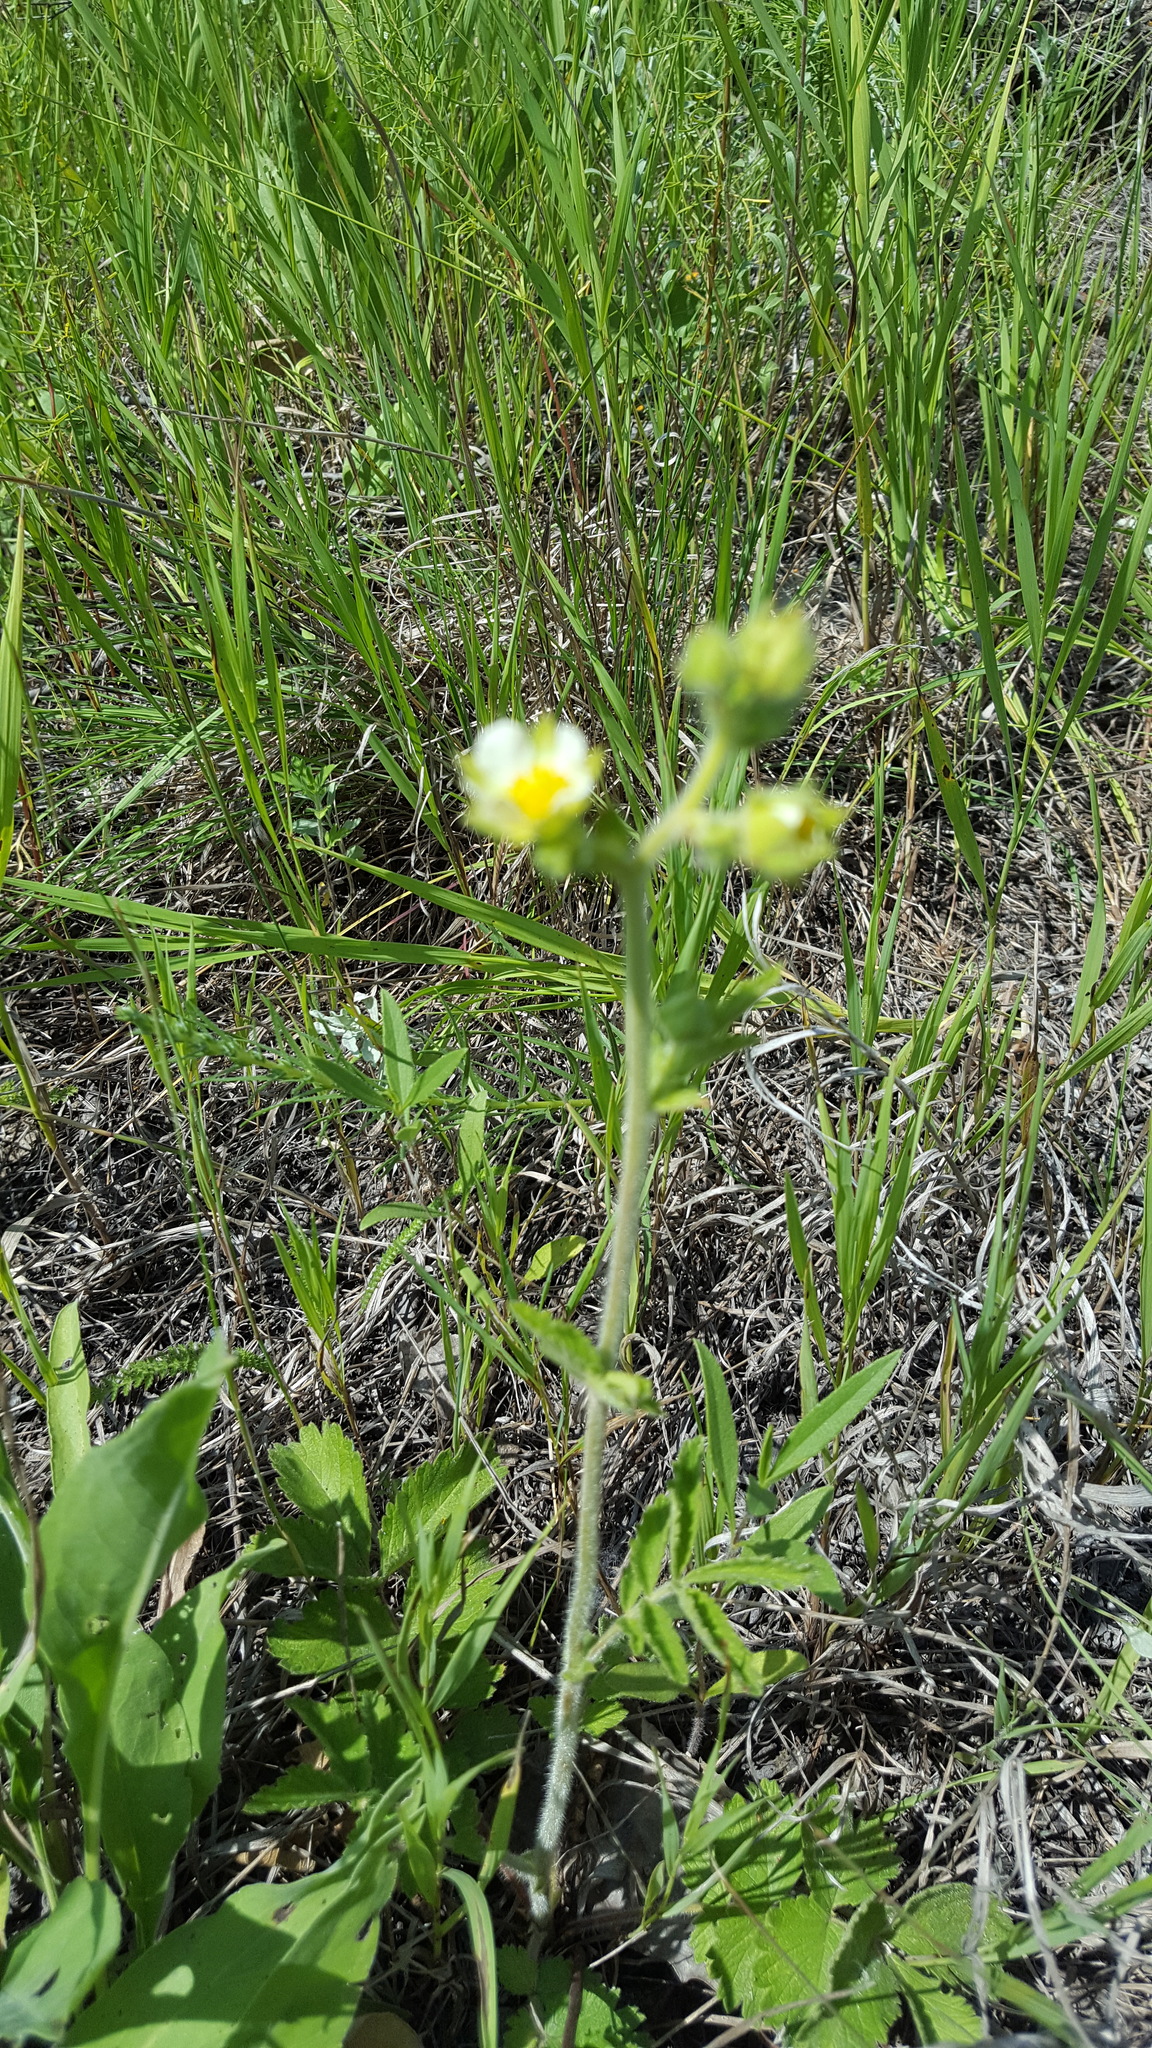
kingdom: Plantae
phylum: Tracheophyta
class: Magnoliopsida
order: Rosales
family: Rosaceae
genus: Drymocallis
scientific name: Drymocallis arguta
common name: Tall cinquefoil
